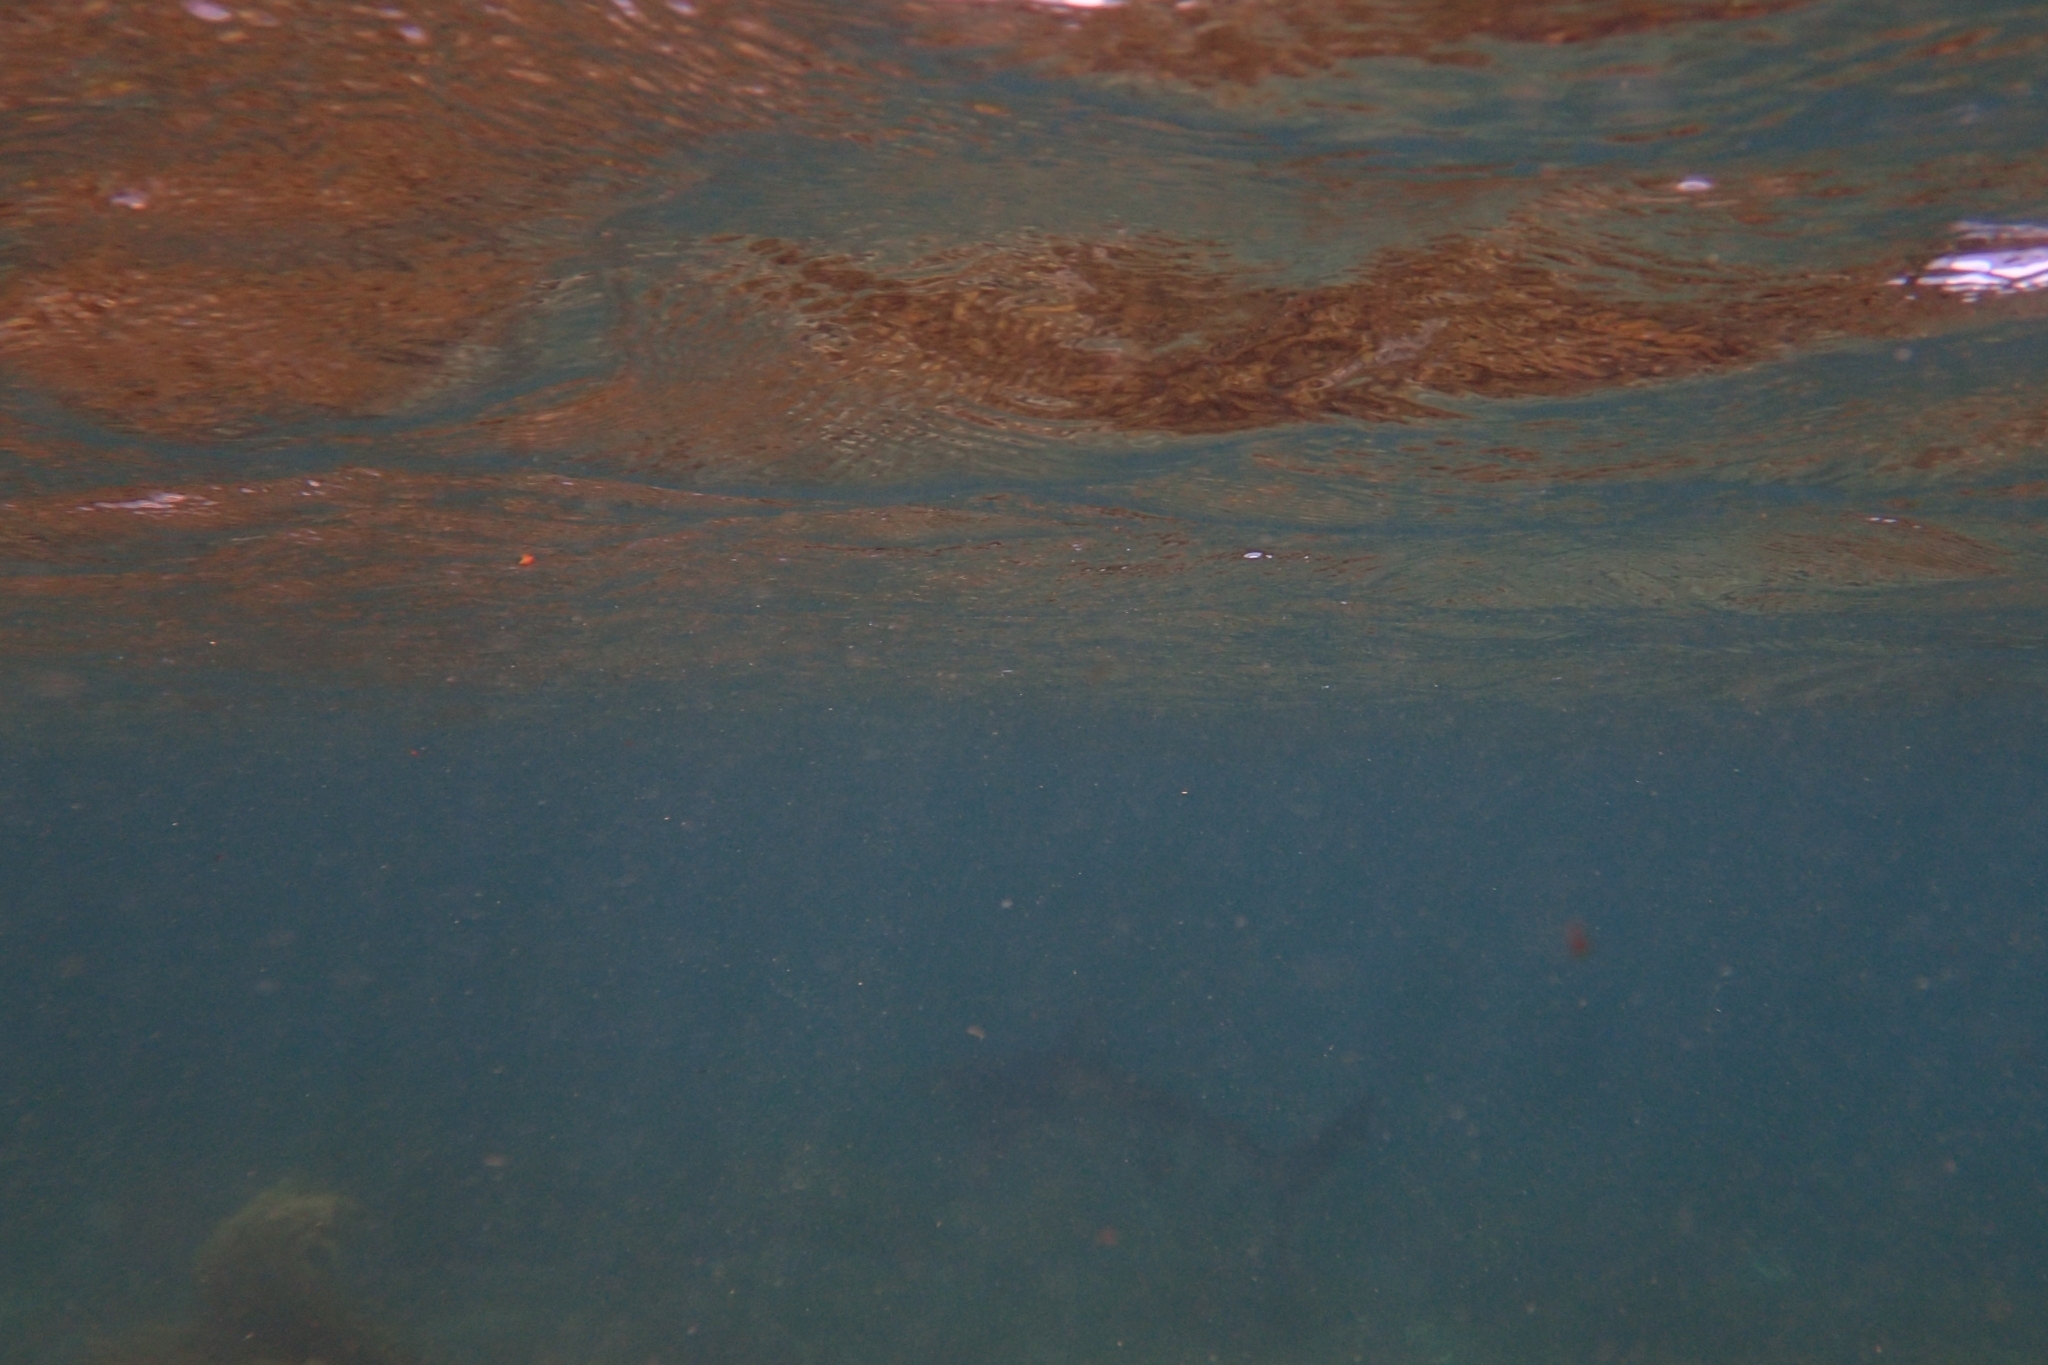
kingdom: Animalia
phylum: Chordata
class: Elasmobranchii
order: Carcharhiniformes
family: Carcharhinidae
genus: Carcharhinus
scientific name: Carcharhinus brachyurus
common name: Bronze whaler
